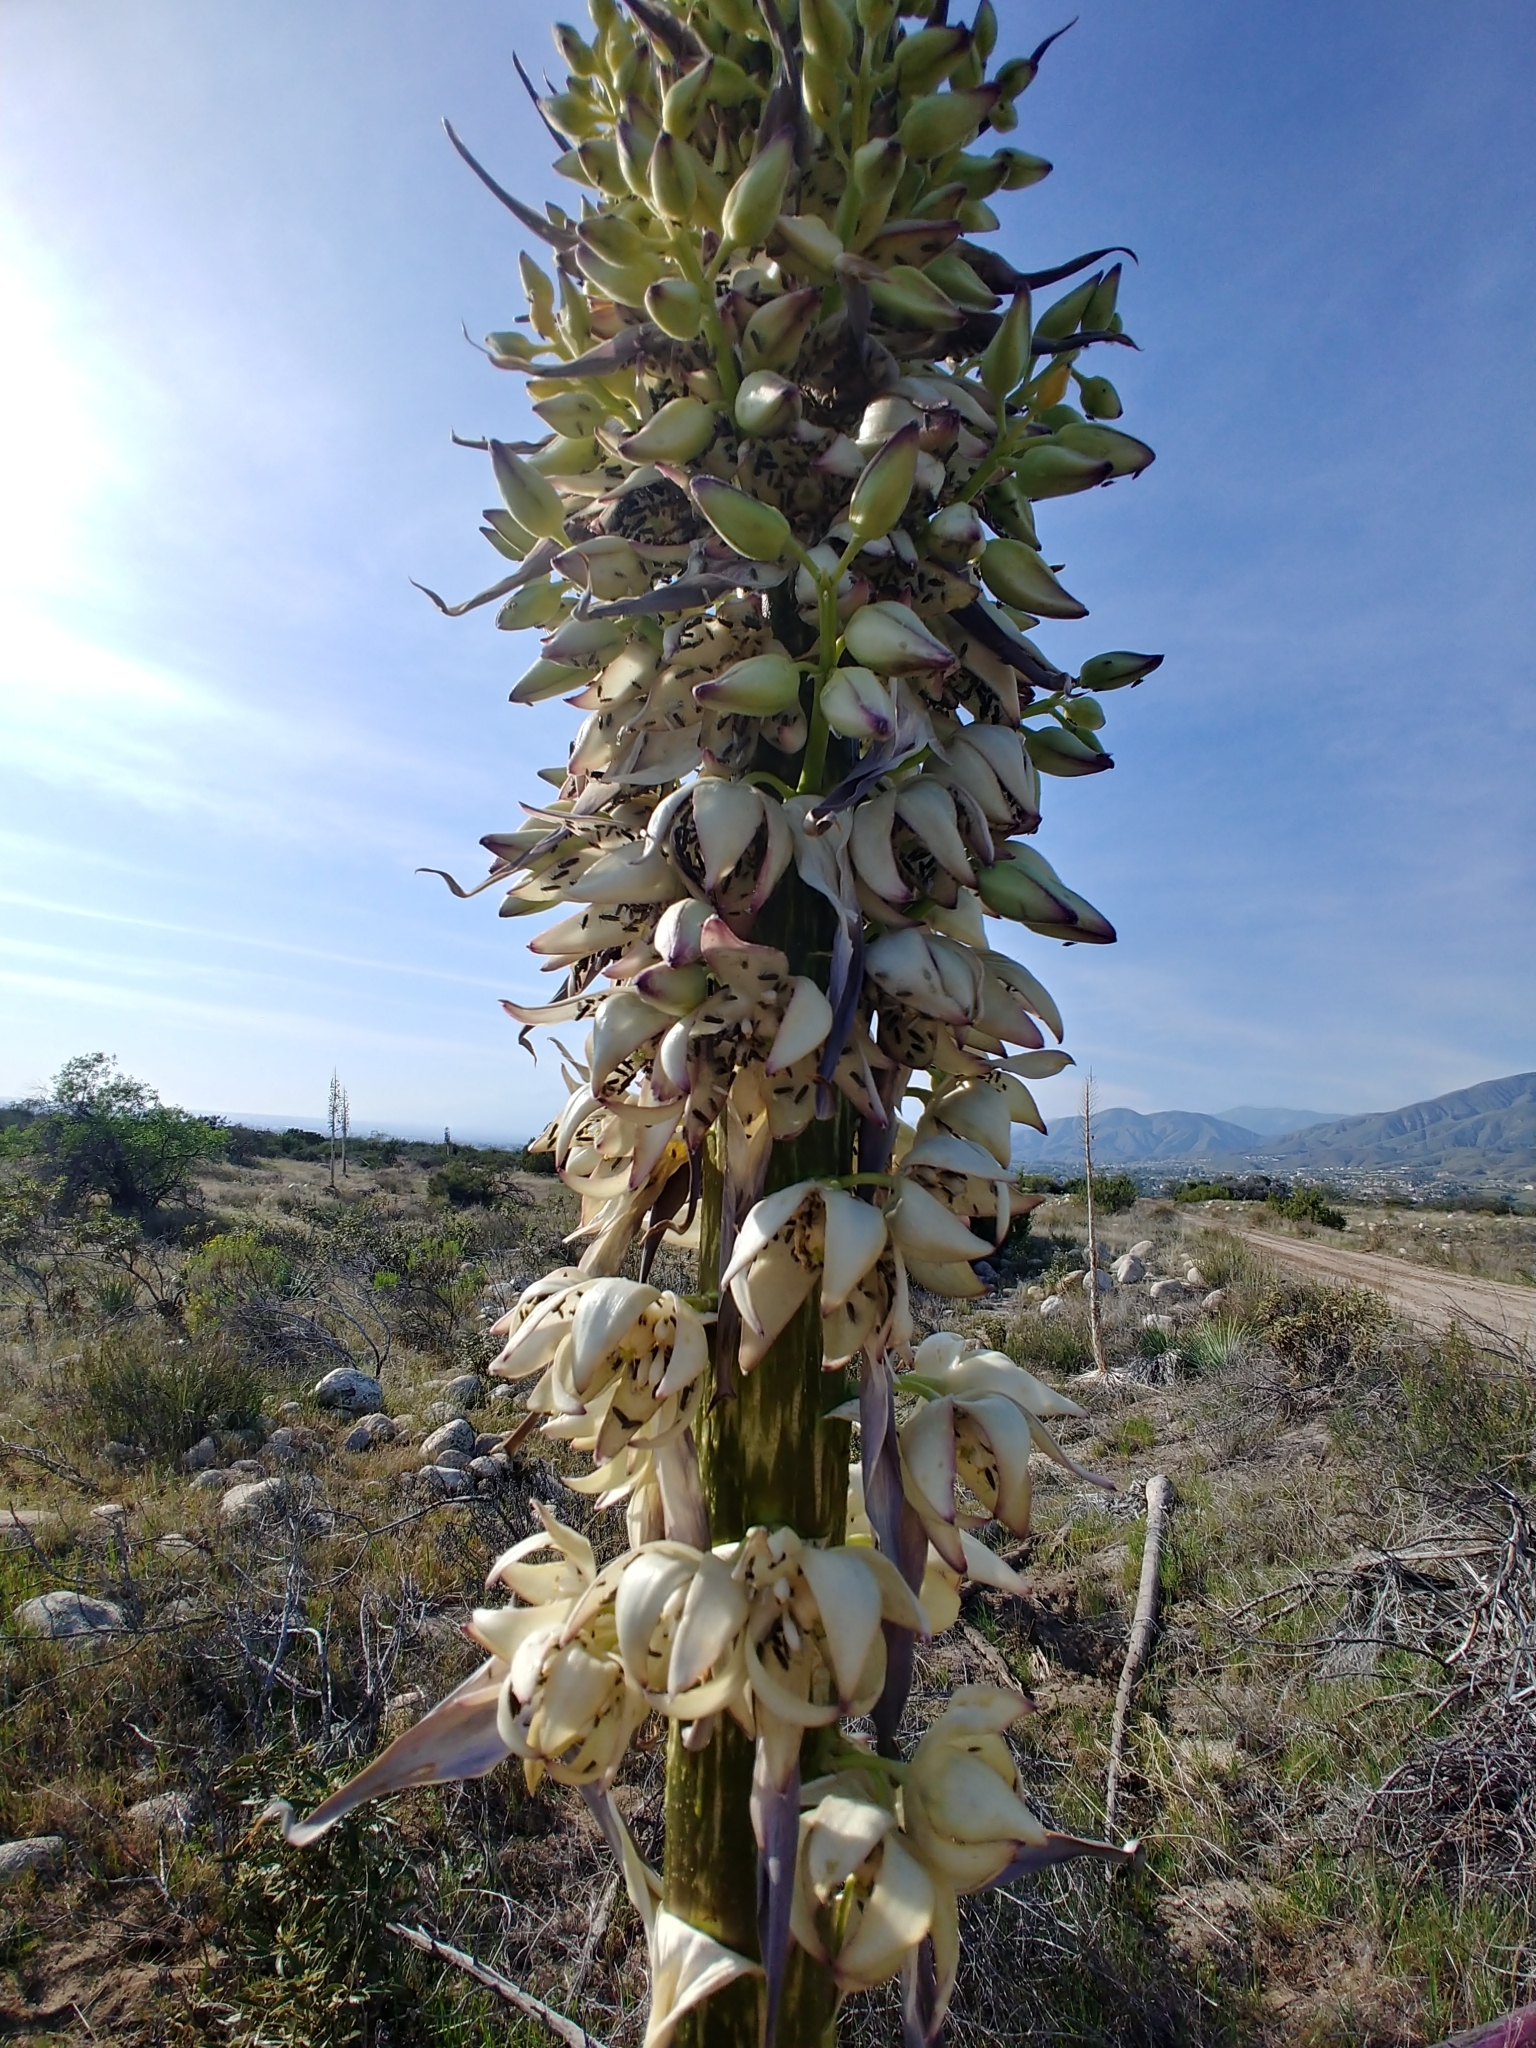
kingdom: Plantae
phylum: Tracheophyta
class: Liliopsida
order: Asparagales
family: Asparagaceae
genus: Hesperoyucca
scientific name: Hesperoyucca whipplei
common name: Our lord's-candle
